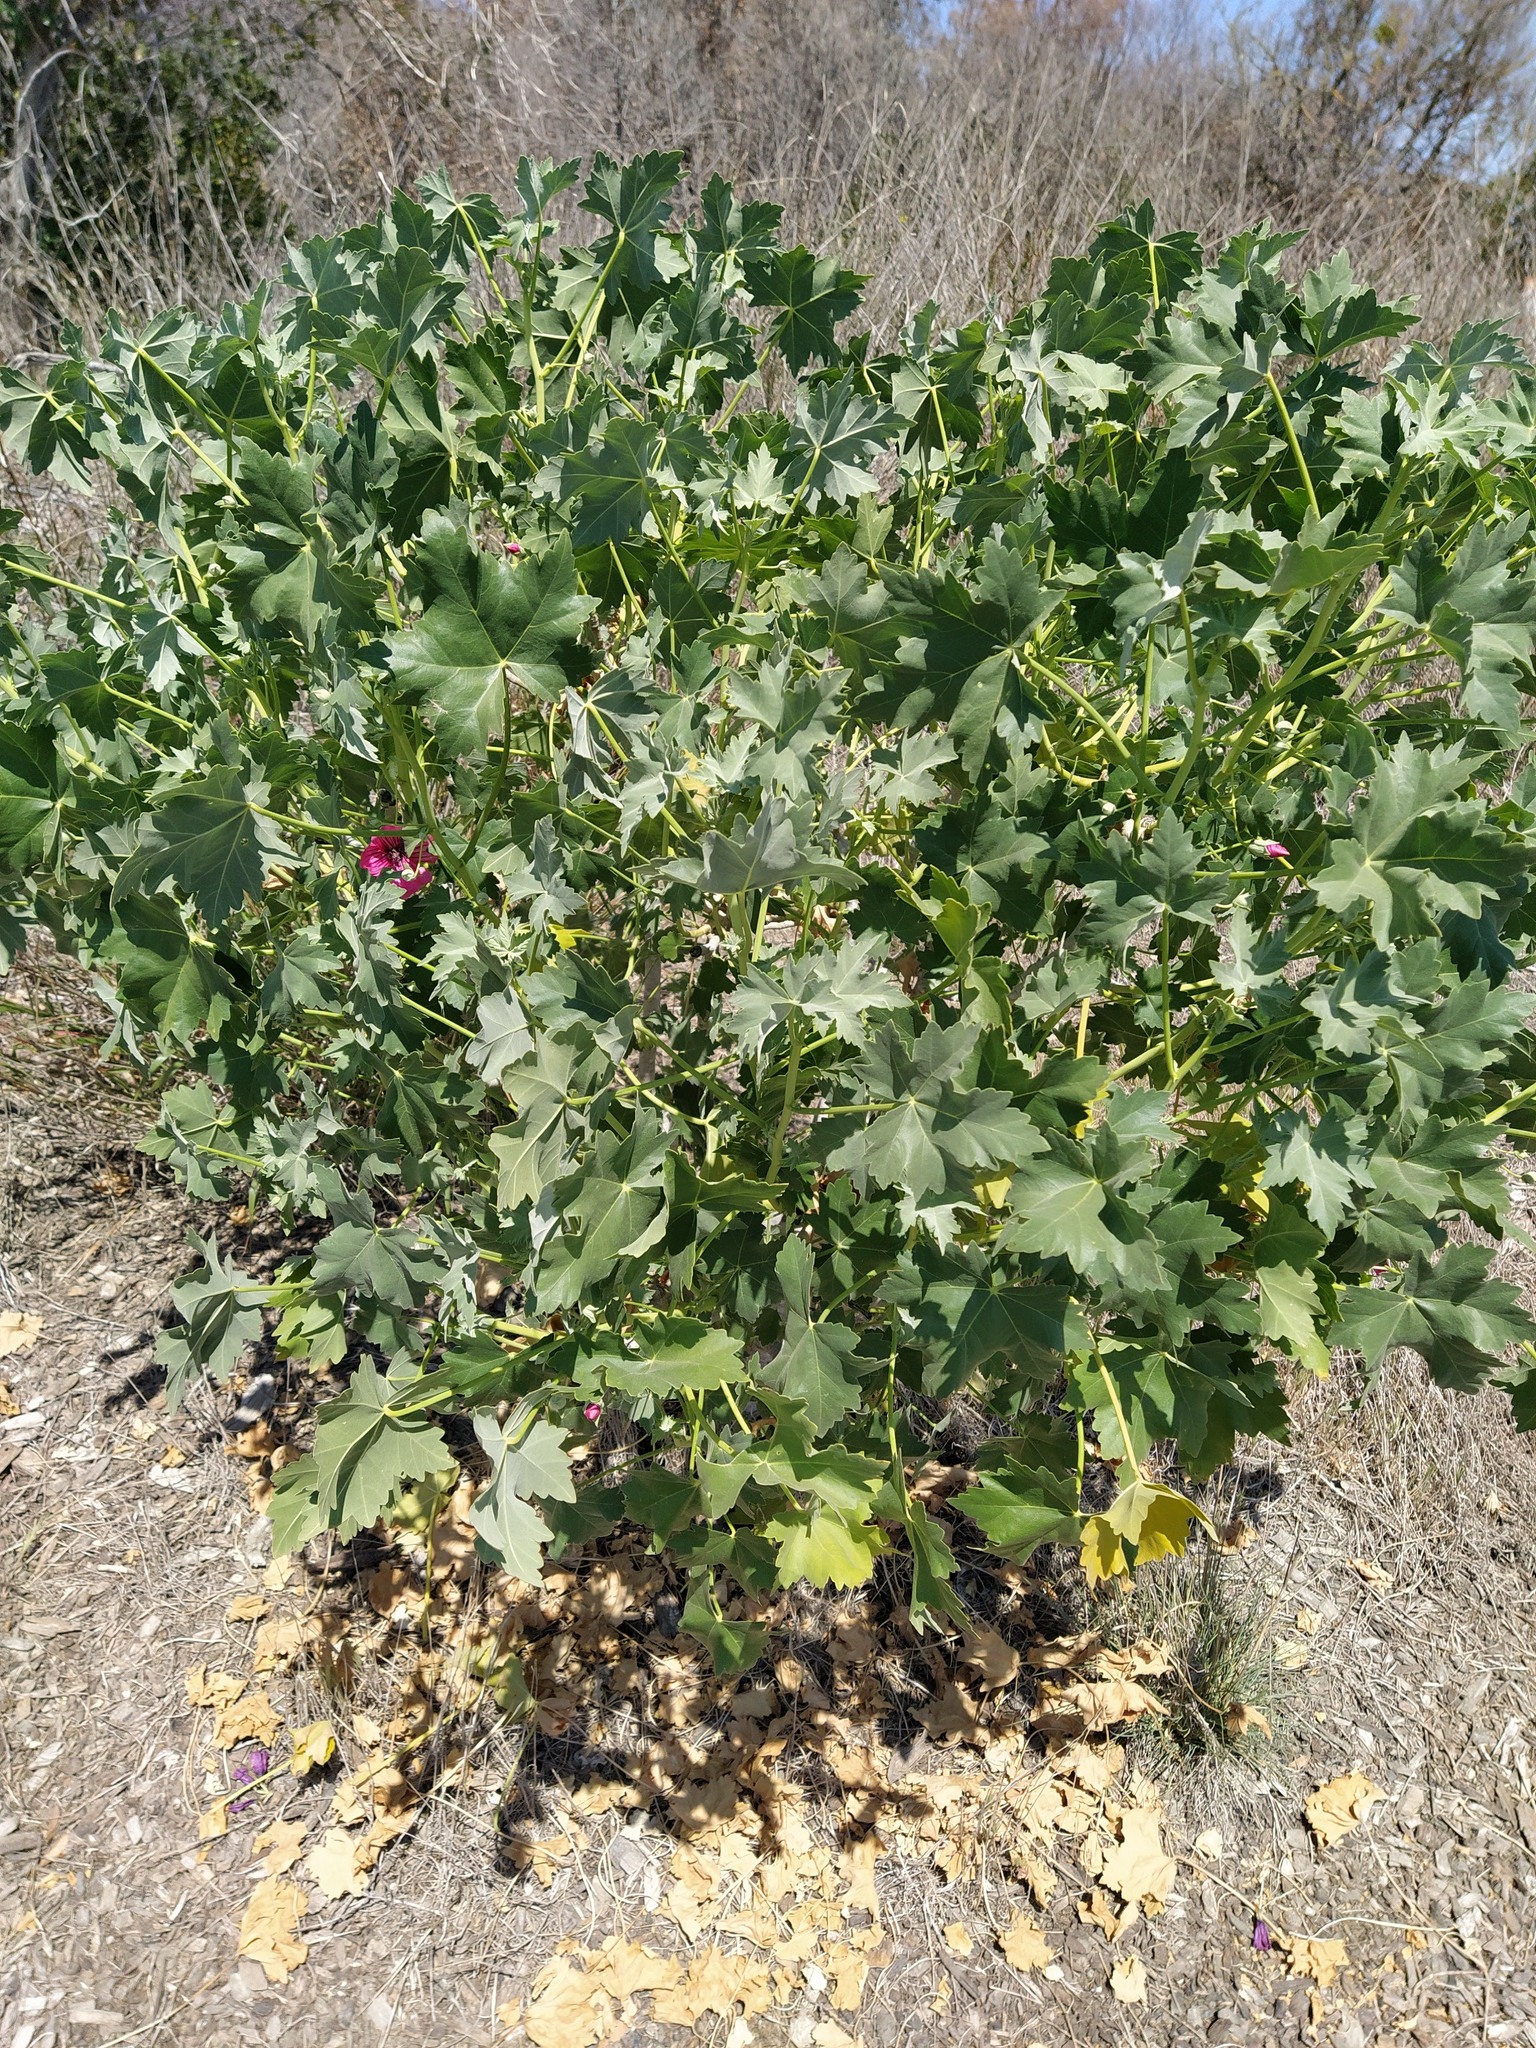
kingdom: Plantae
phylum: Tracheophyta
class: Magnoliopsida
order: Malvales
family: Malvaceae
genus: Malva
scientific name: Malva assurgentiflora
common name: Island mallow
